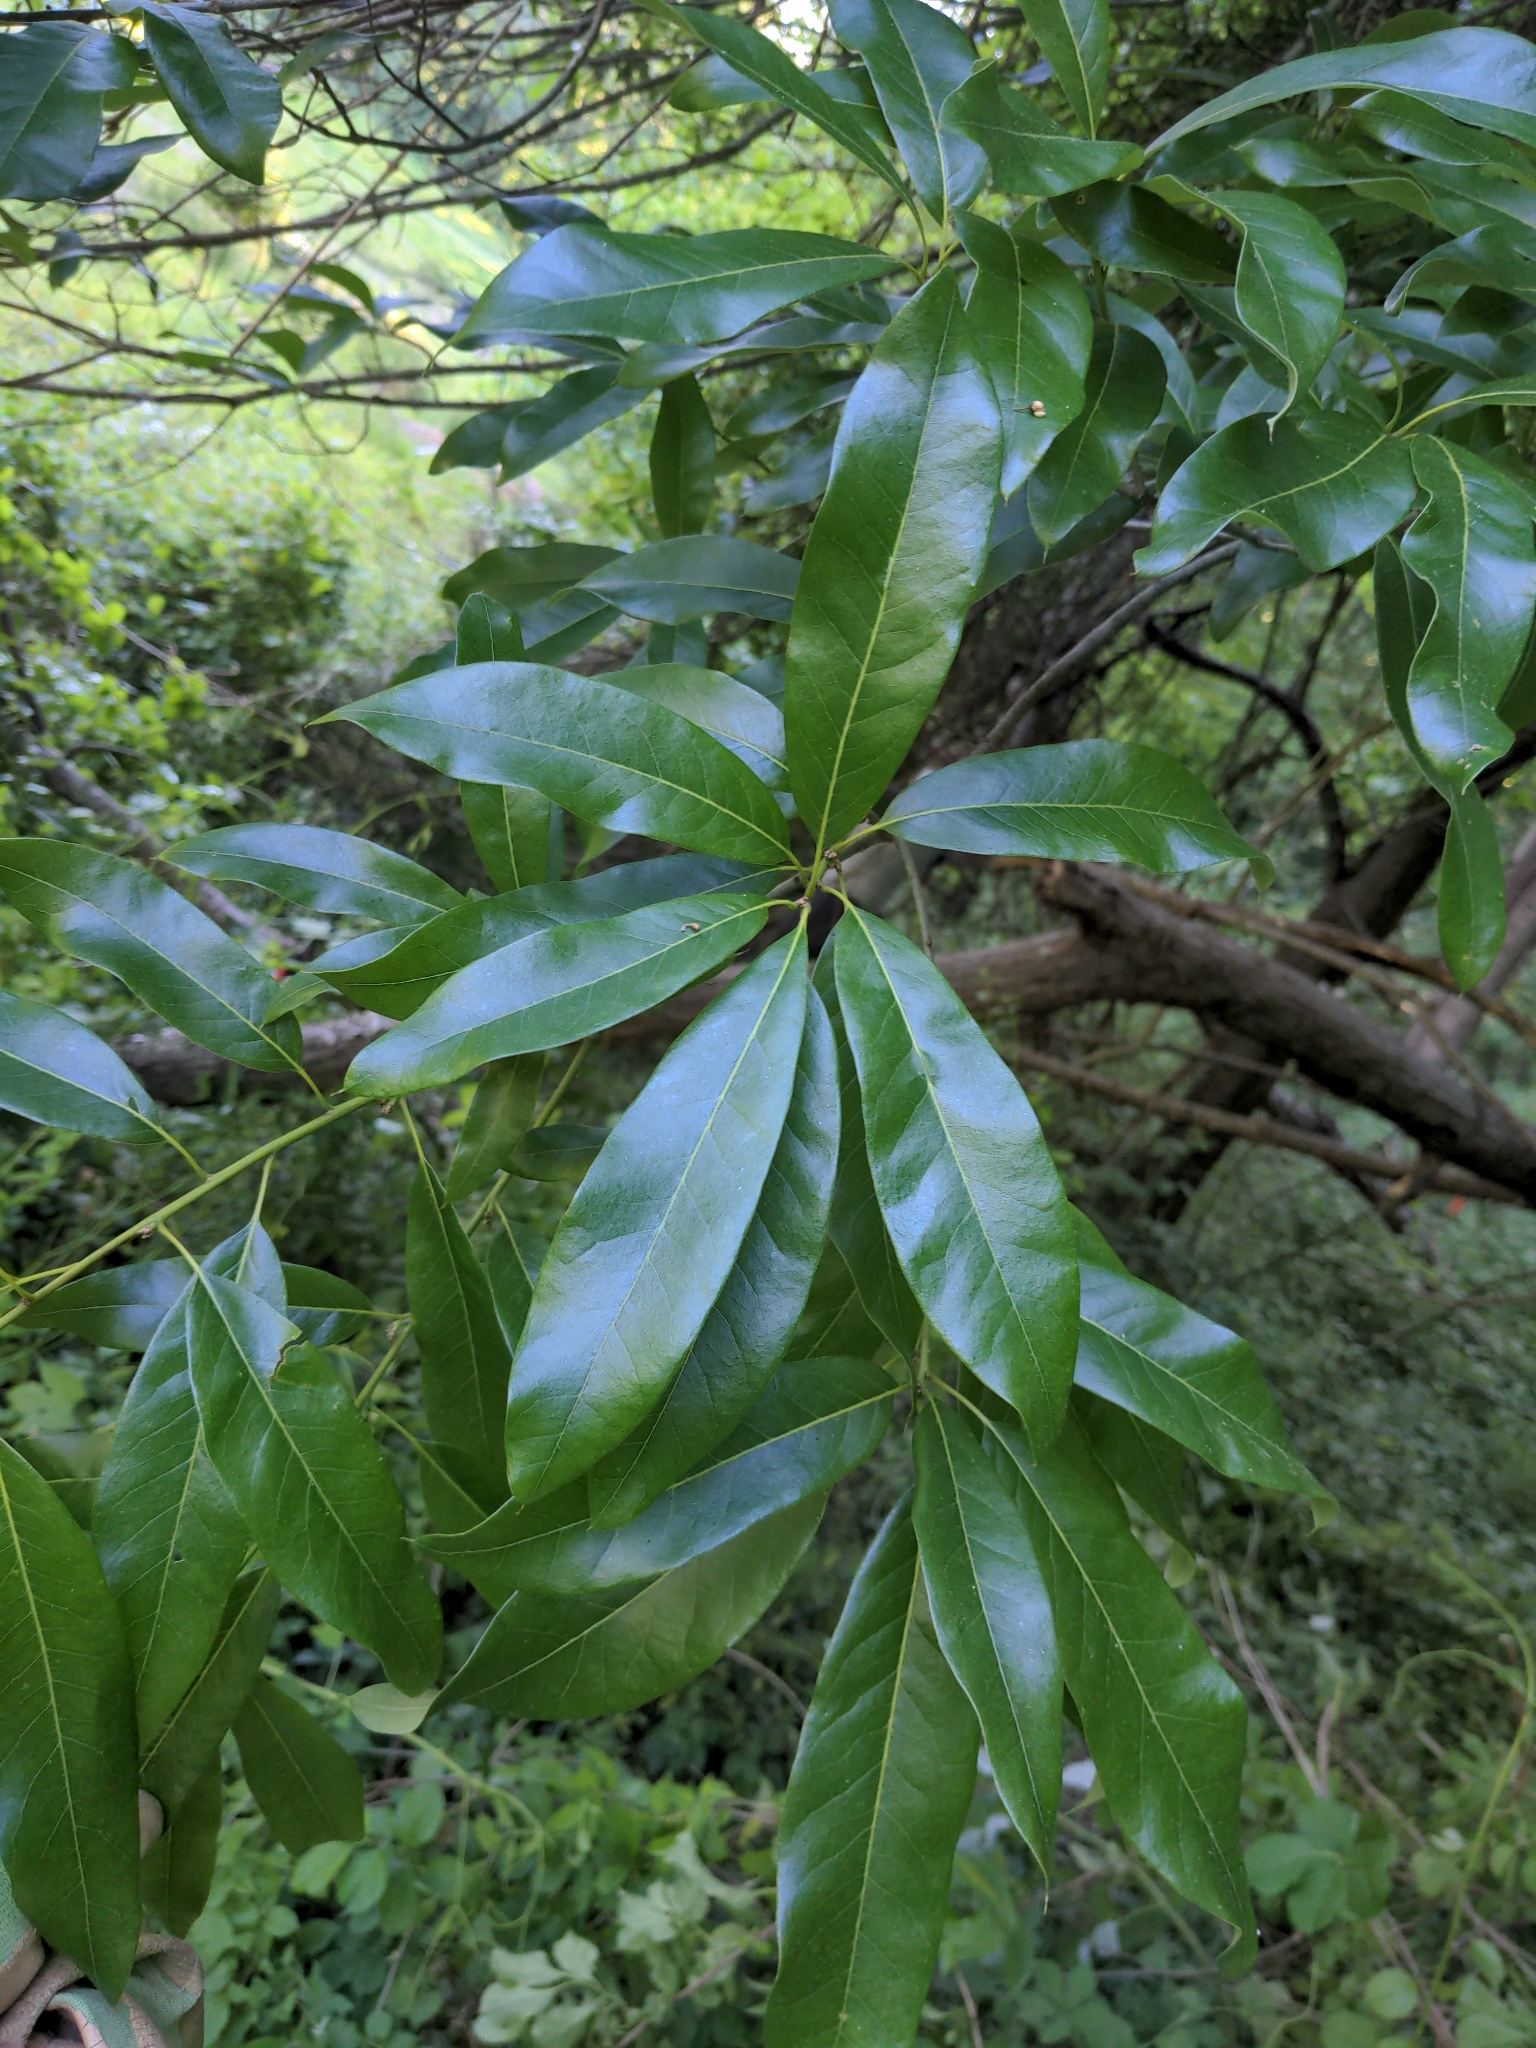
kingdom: Plantae
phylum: Tracheophyta
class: Magnoliopsida
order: Fagales
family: Fagaceae
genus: Quercus
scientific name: Quercus imbricaria
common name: Shingle oak
